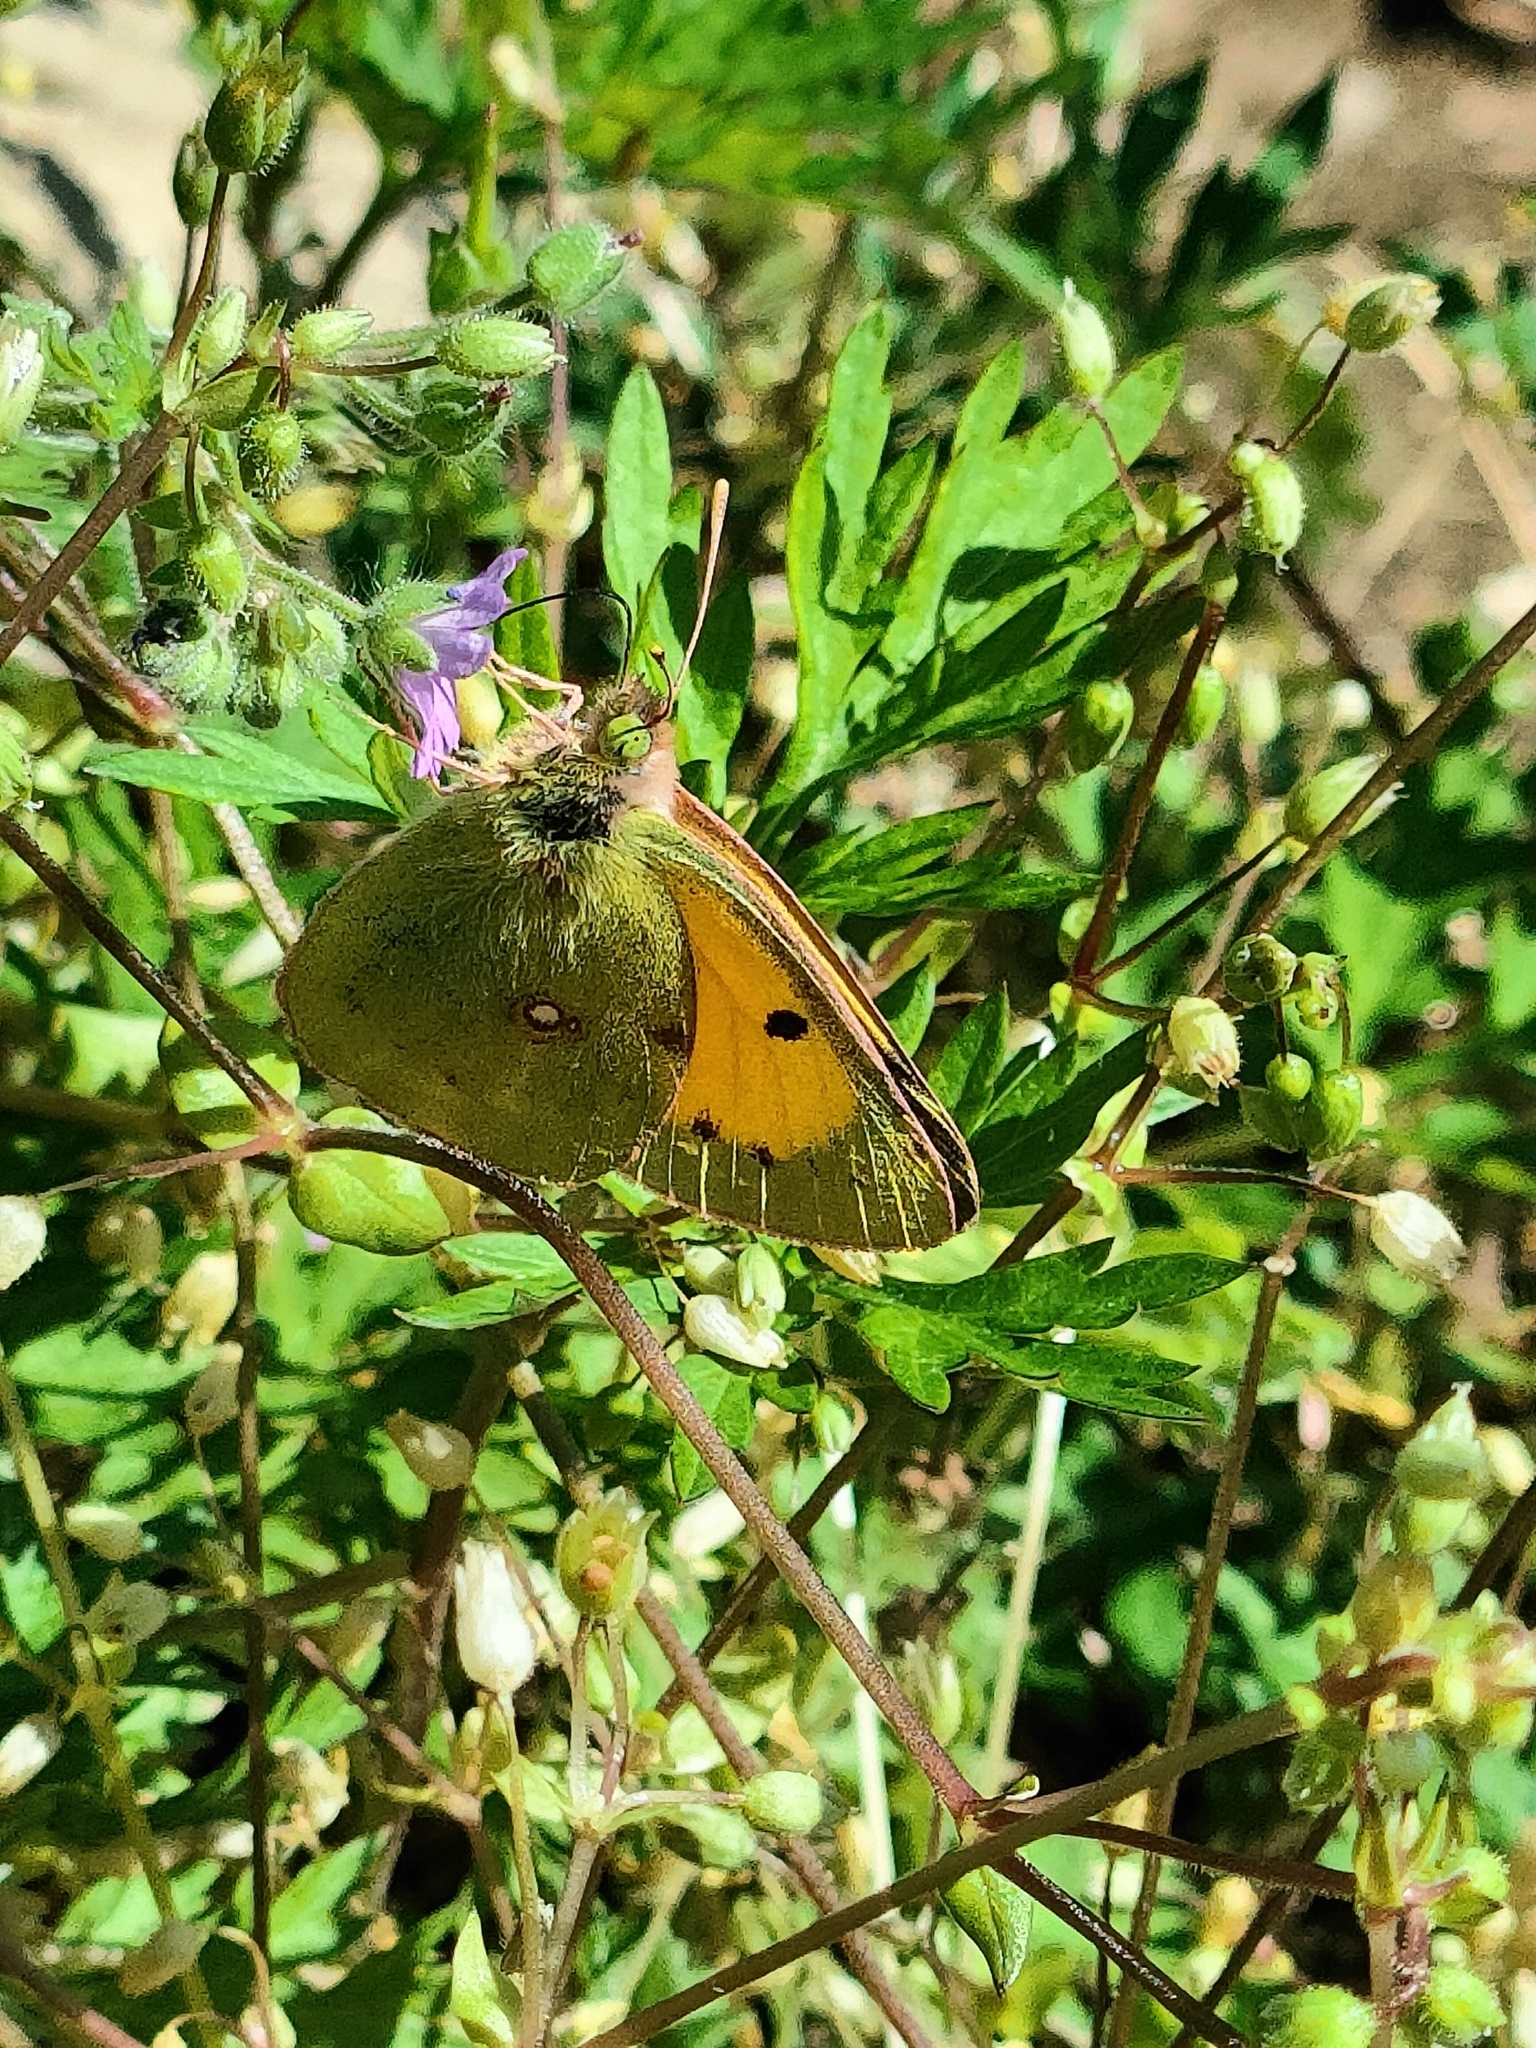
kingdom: Animalia
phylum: Arthropoda
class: Insecta
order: Lepidoptera
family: Pieridae
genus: Colias
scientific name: Colias croceus
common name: Clouded yellow
